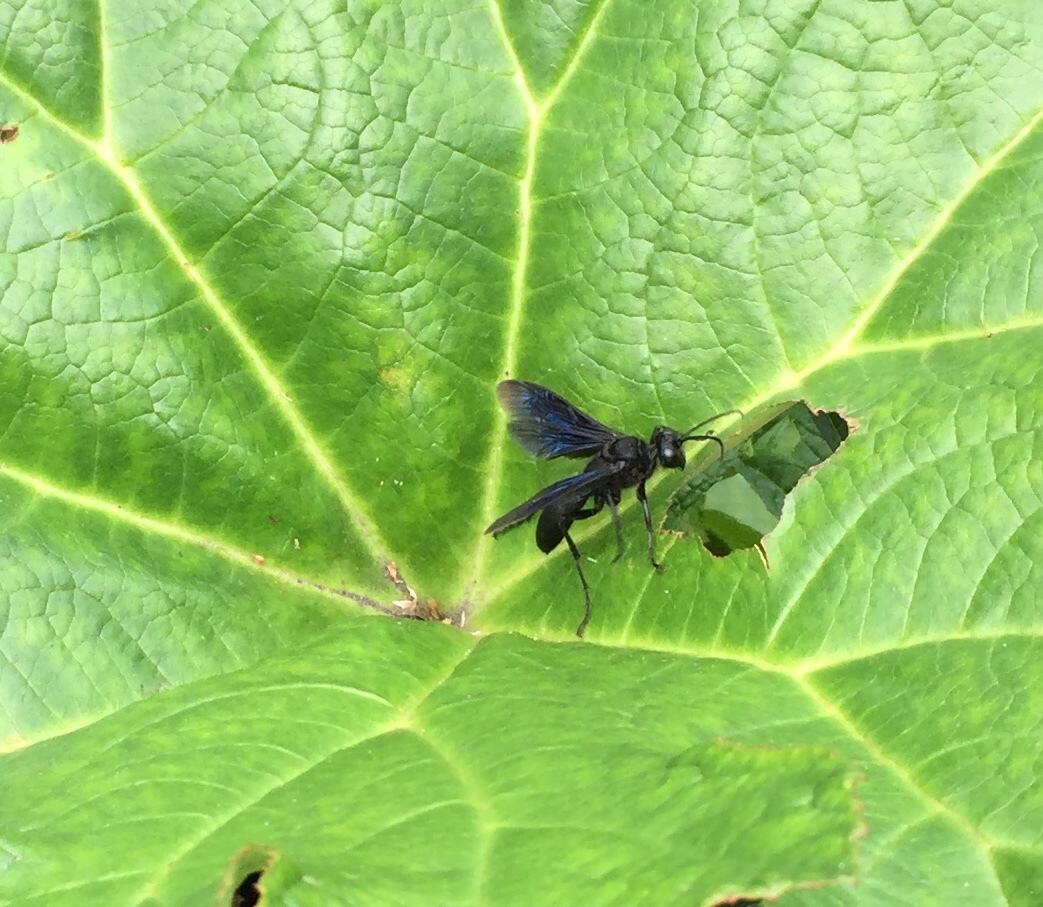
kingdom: Animalia
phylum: Arthropoda
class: Insecta
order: Hymenoptera
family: Sphecidae
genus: Sphex
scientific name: Sphex pensylvanicus
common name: Great black digger wasp
